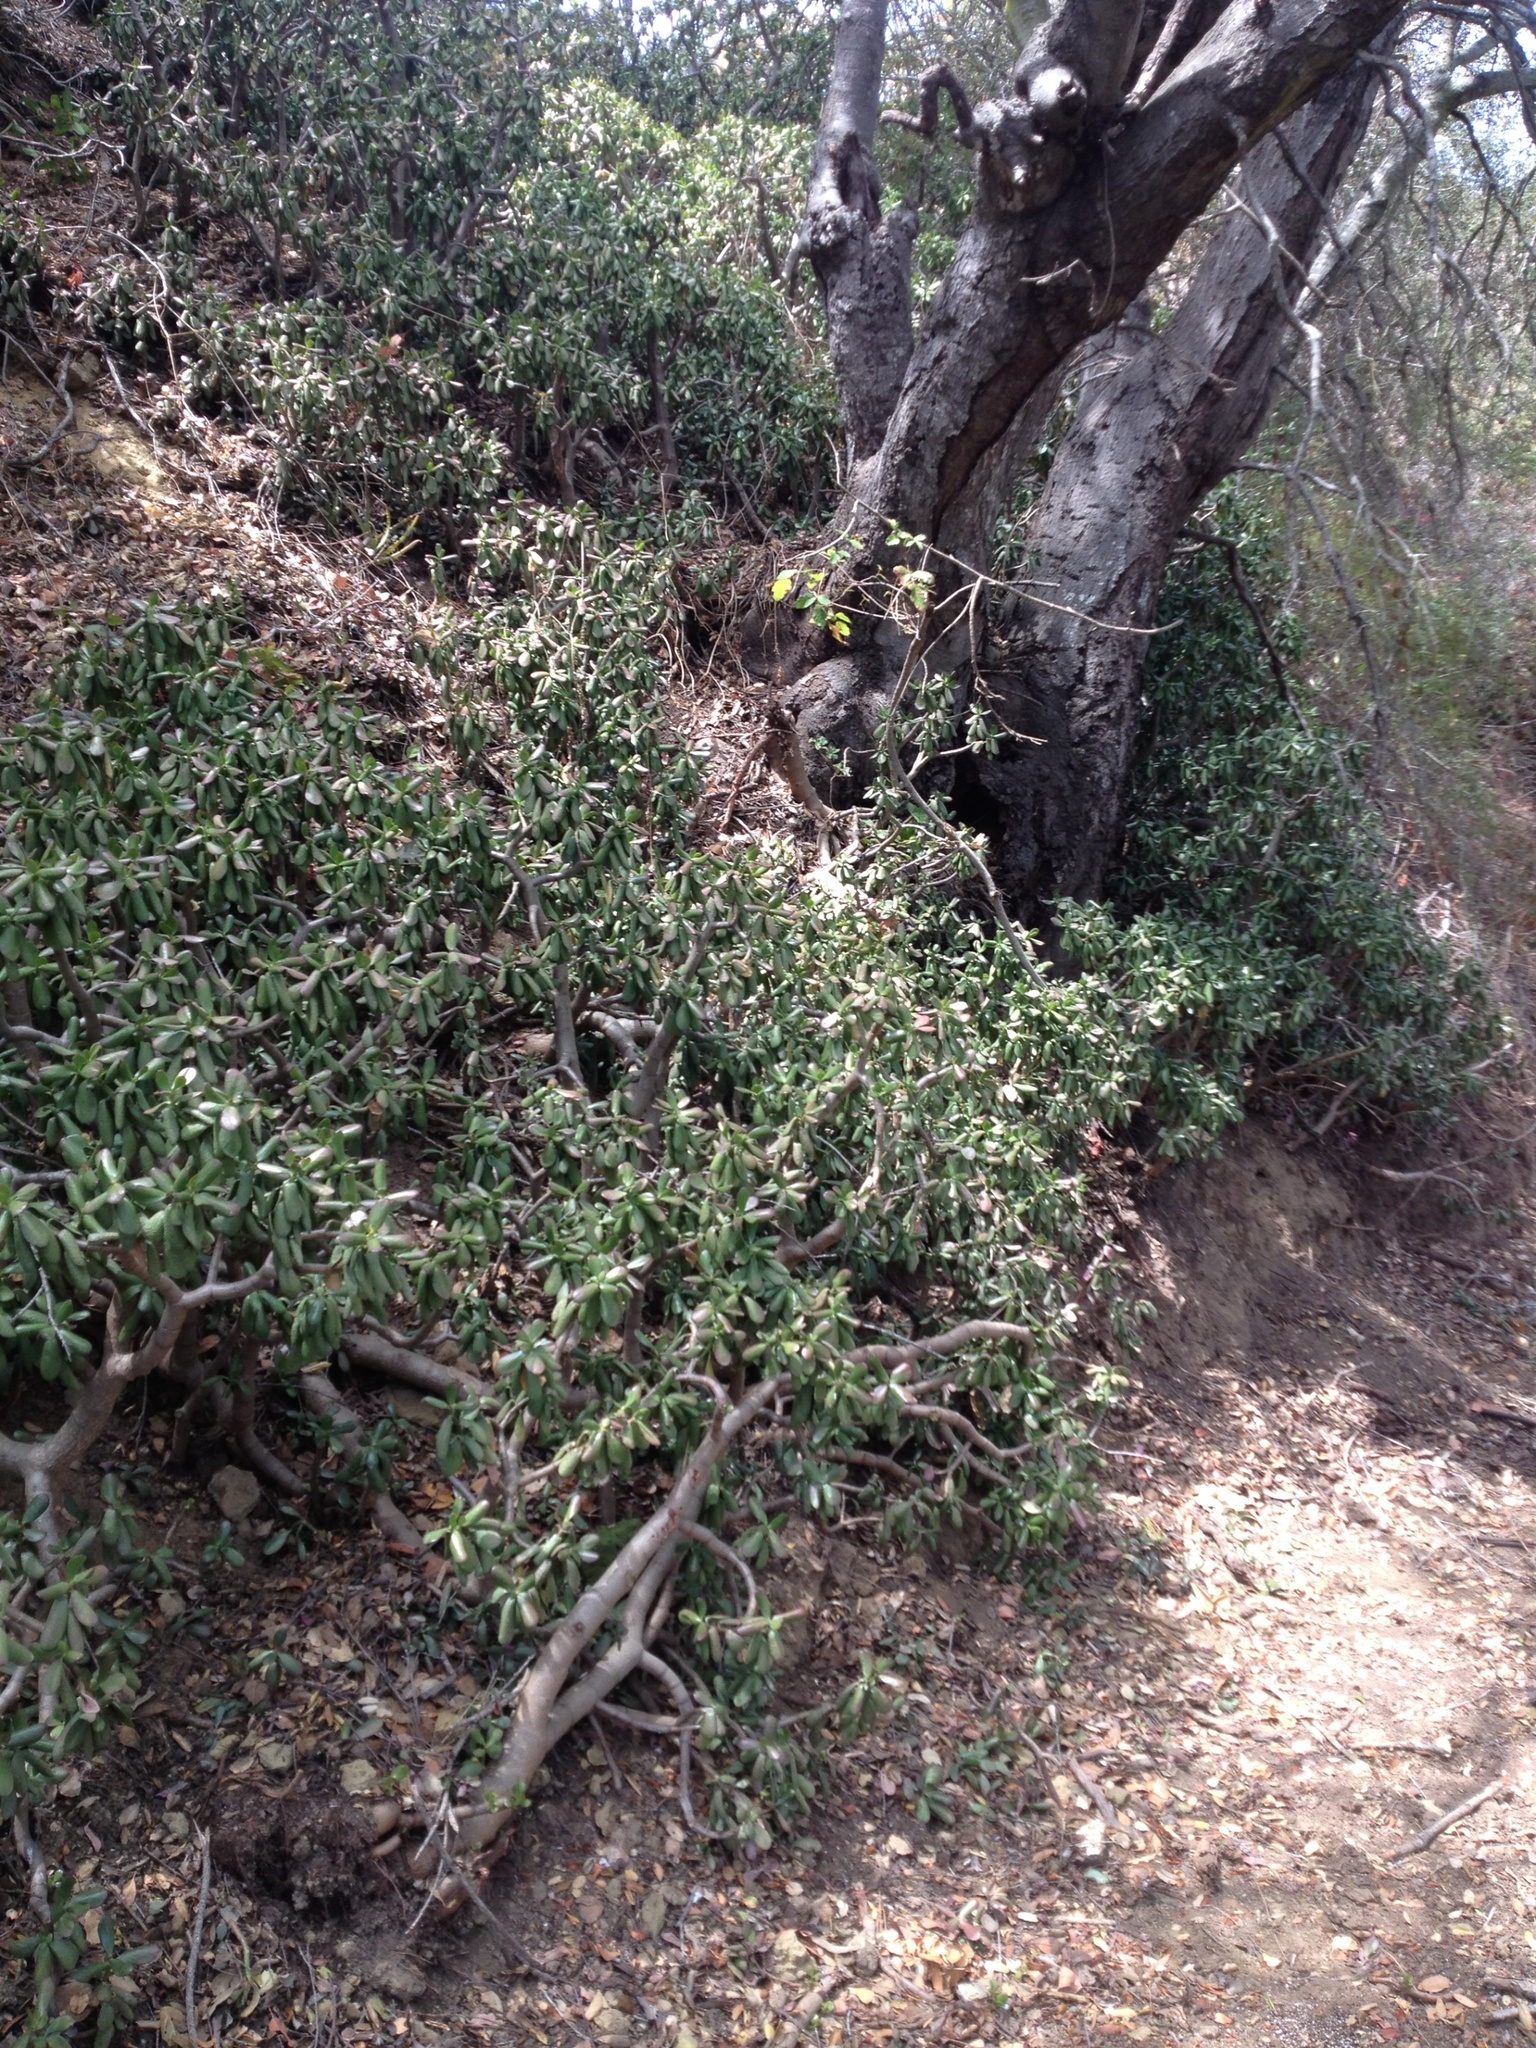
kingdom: Plantae
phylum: Tracheophyta
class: Magnoliopsida
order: Saxifragales
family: Crassulaceae
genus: Crassula
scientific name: Crassula ovata
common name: Jade plant
